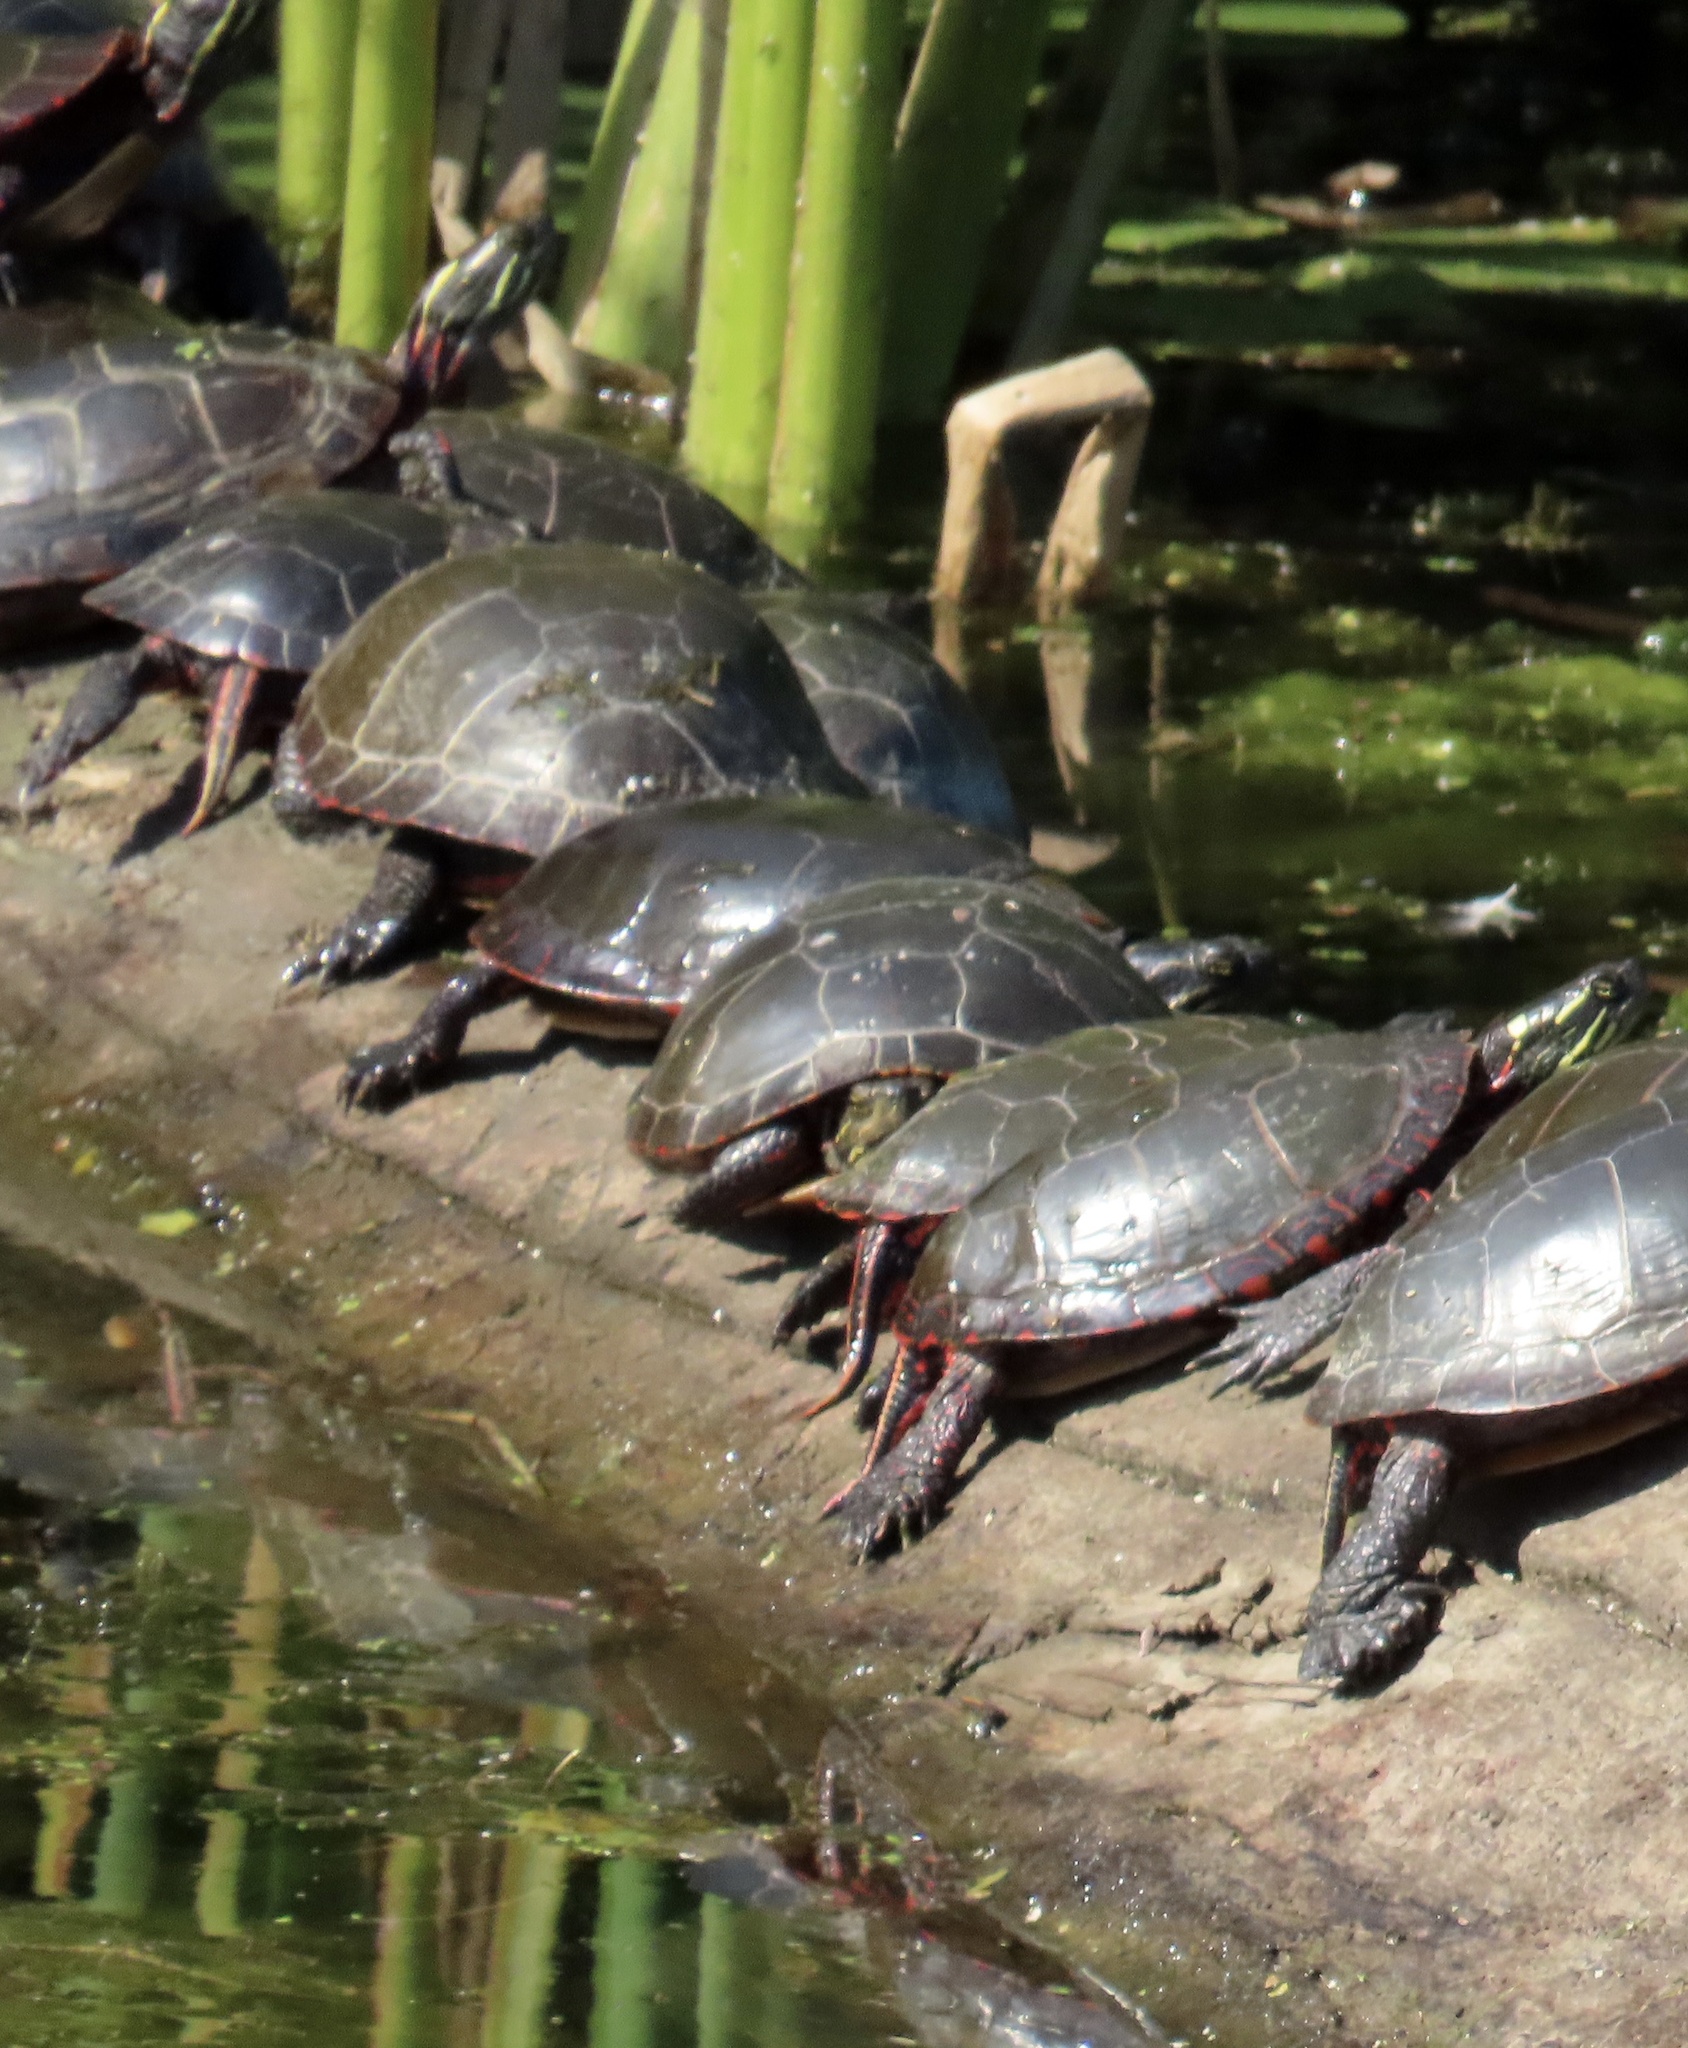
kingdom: Animalia
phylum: Chordata
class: Testudines
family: Emydidae
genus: Chrysemys
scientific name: Chrysemys picta
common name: Painted turtle
